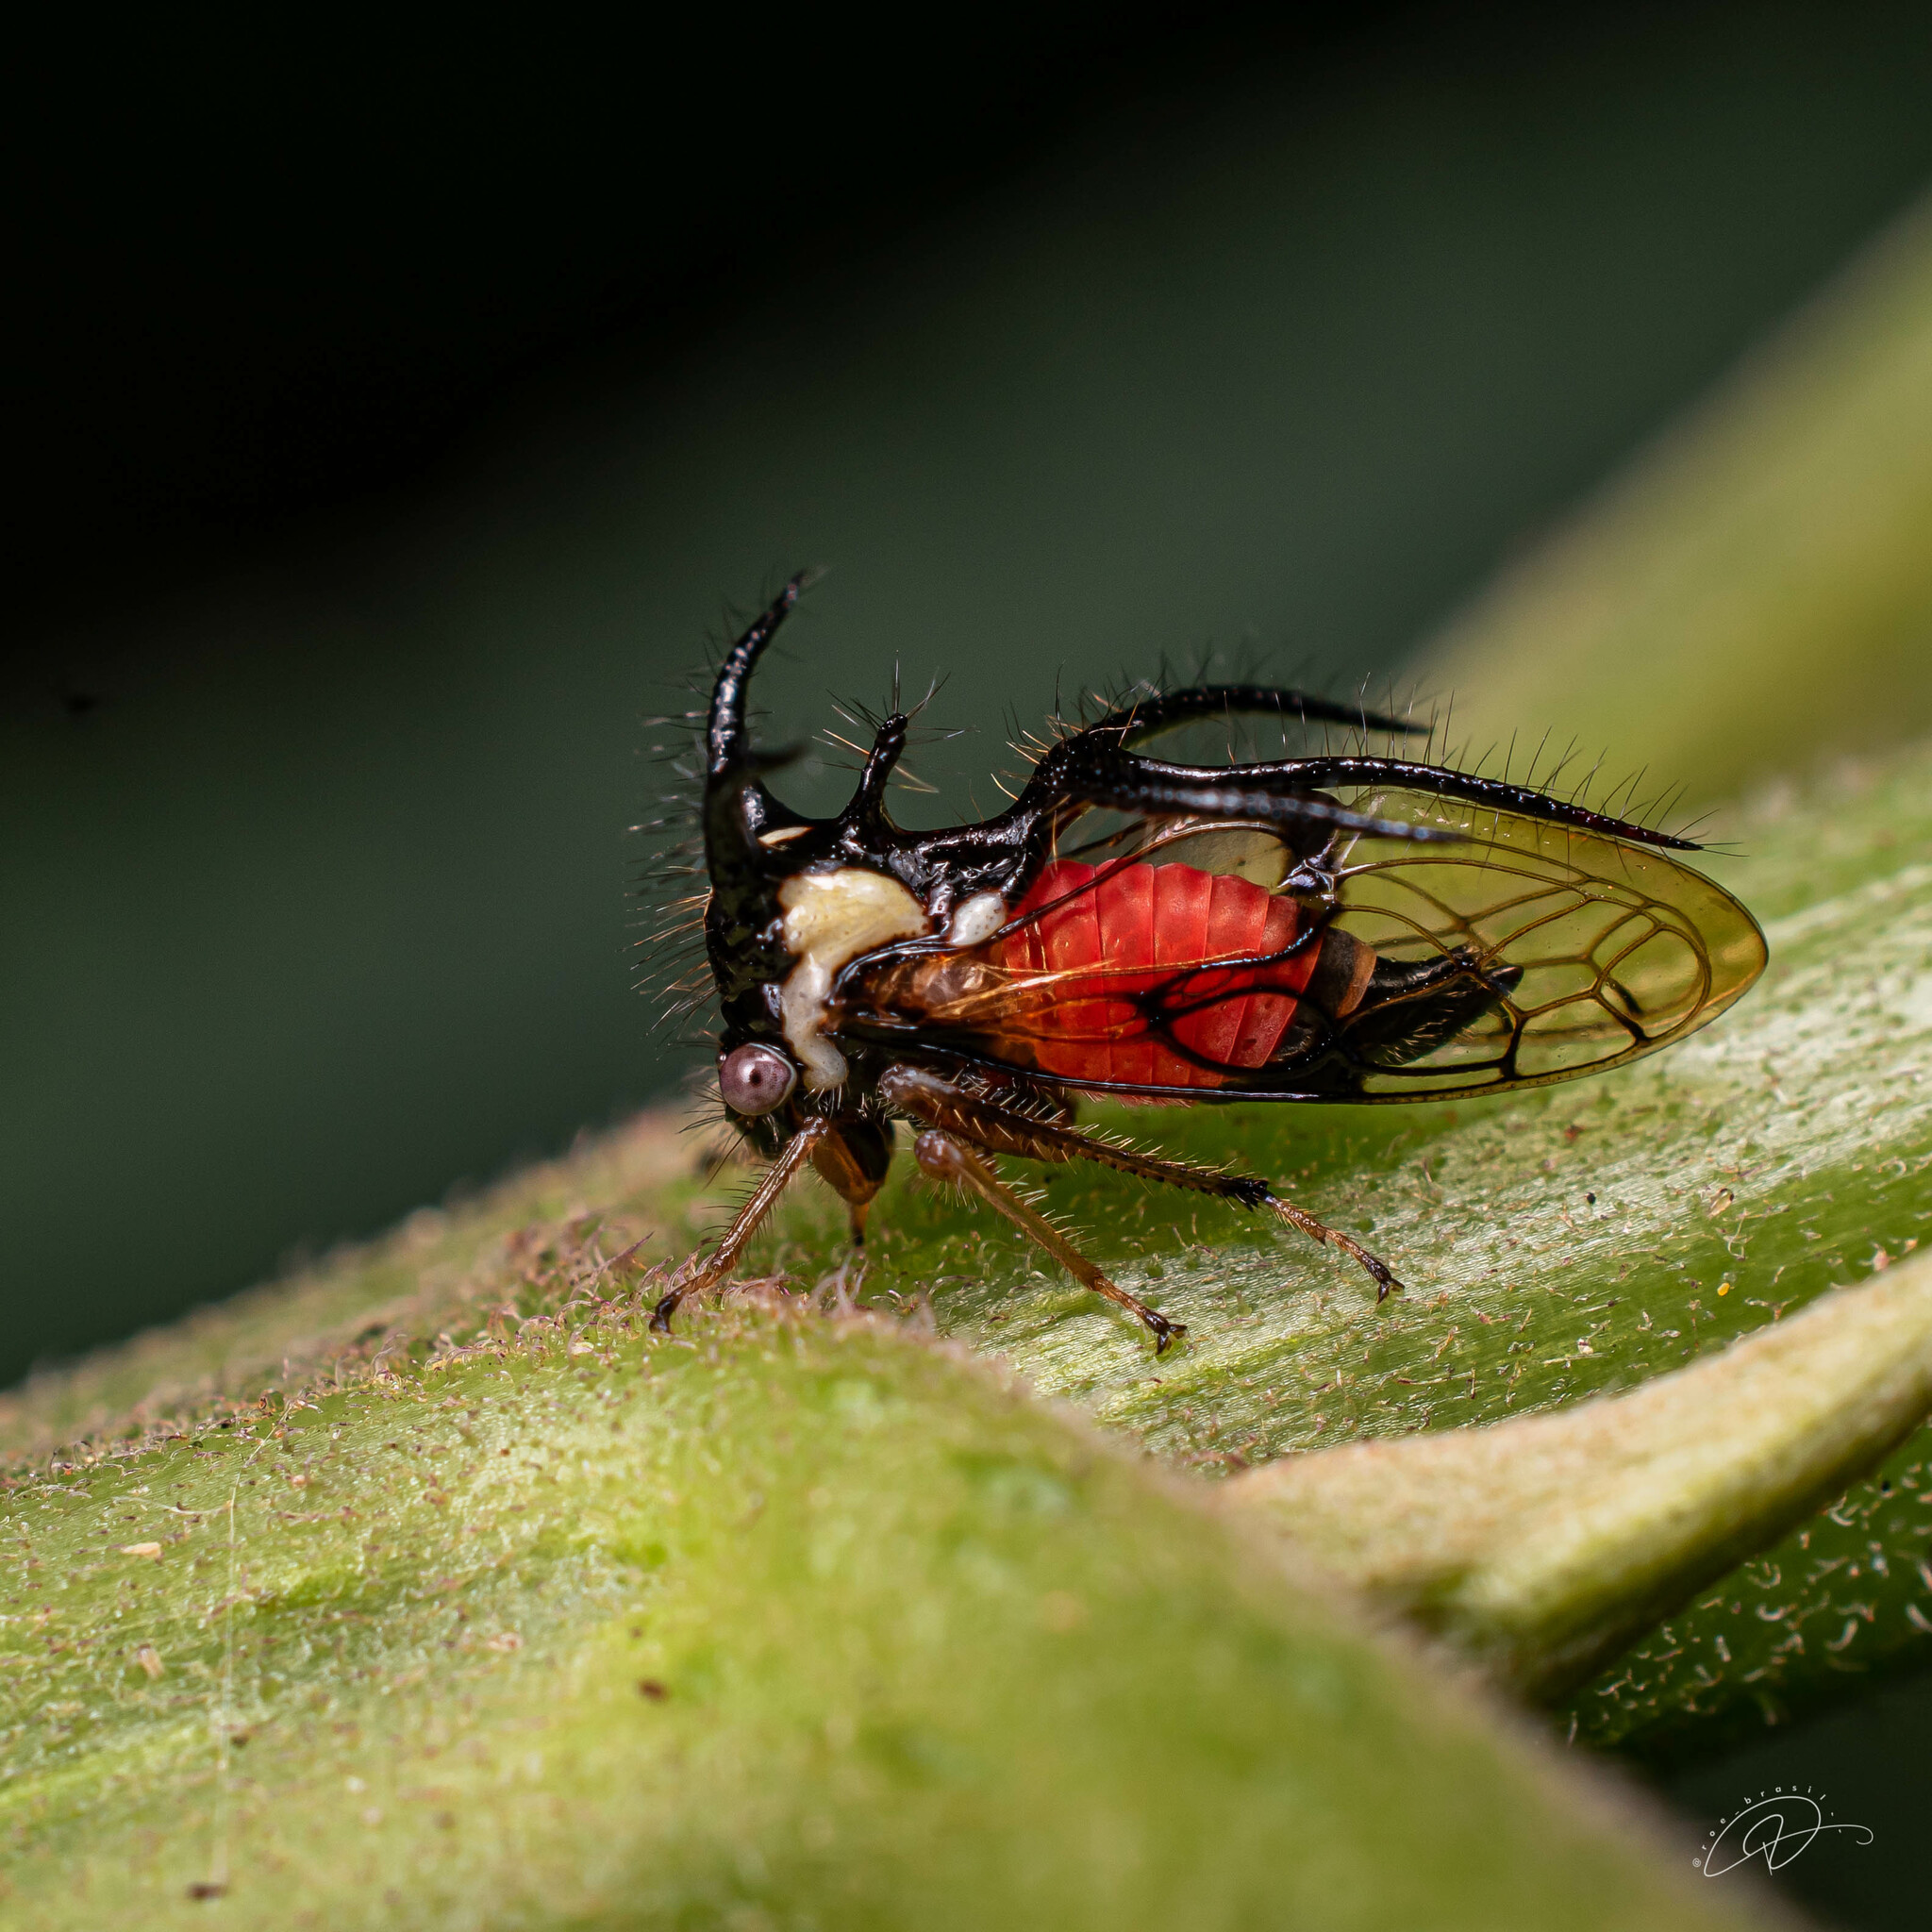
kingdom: Animalia
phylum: Arthropoda
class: Insecta
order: Hemiptera
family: Membracidae
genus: Cyphonia
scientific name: Cyphonia trifida
